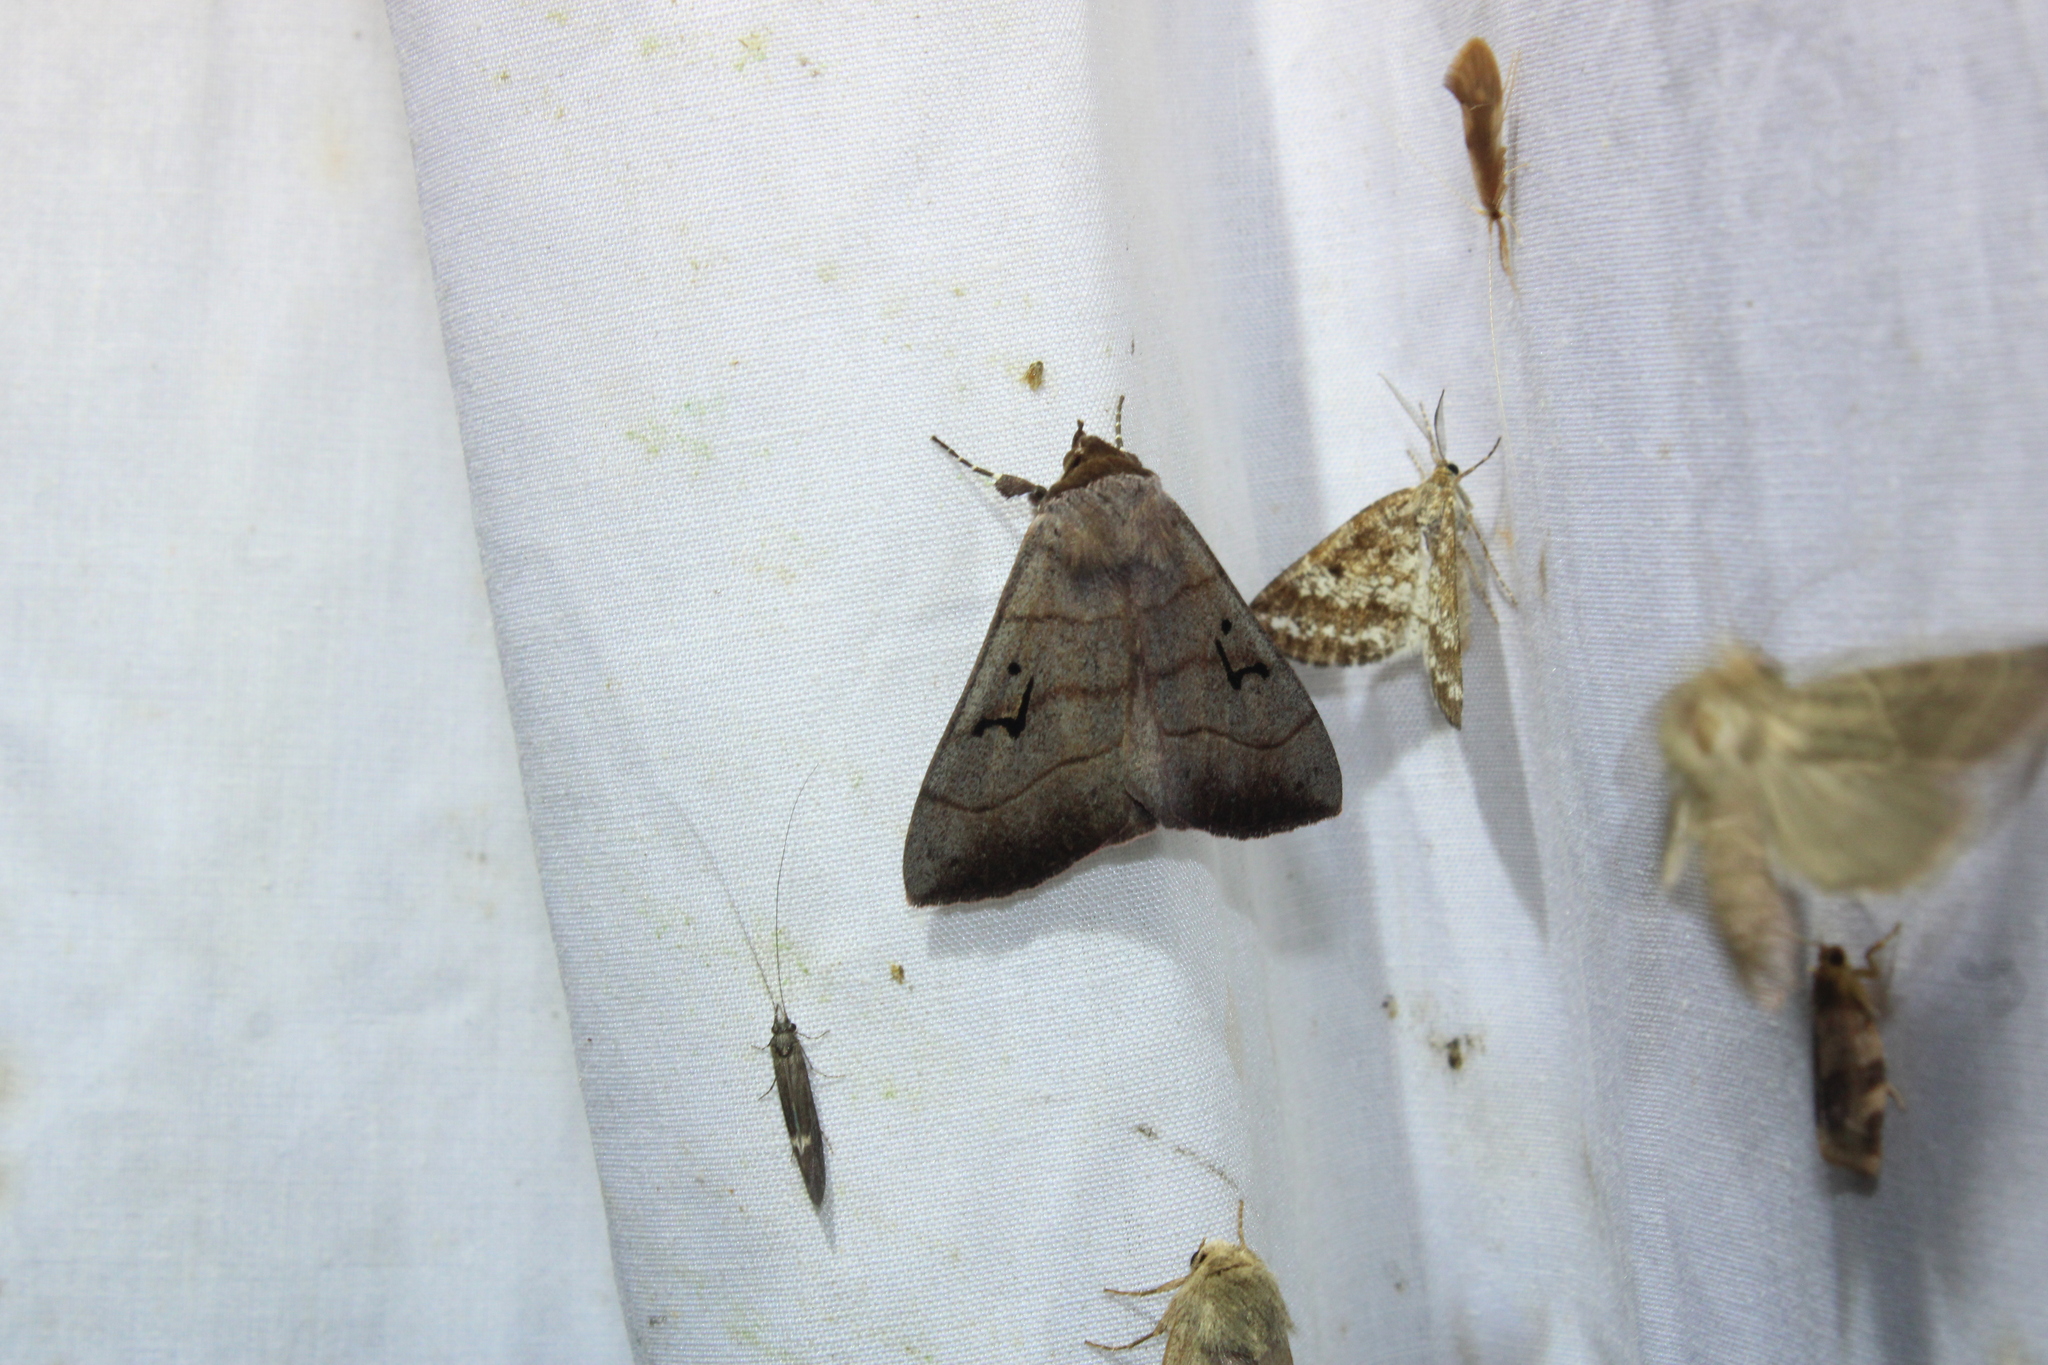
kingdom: Animalia
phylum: Arthropoda
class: Insecta
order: Lepidoptera
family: Erebidae
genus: Panopoda
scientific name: Panopoda carneicosta
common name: Brown panopoda moth
